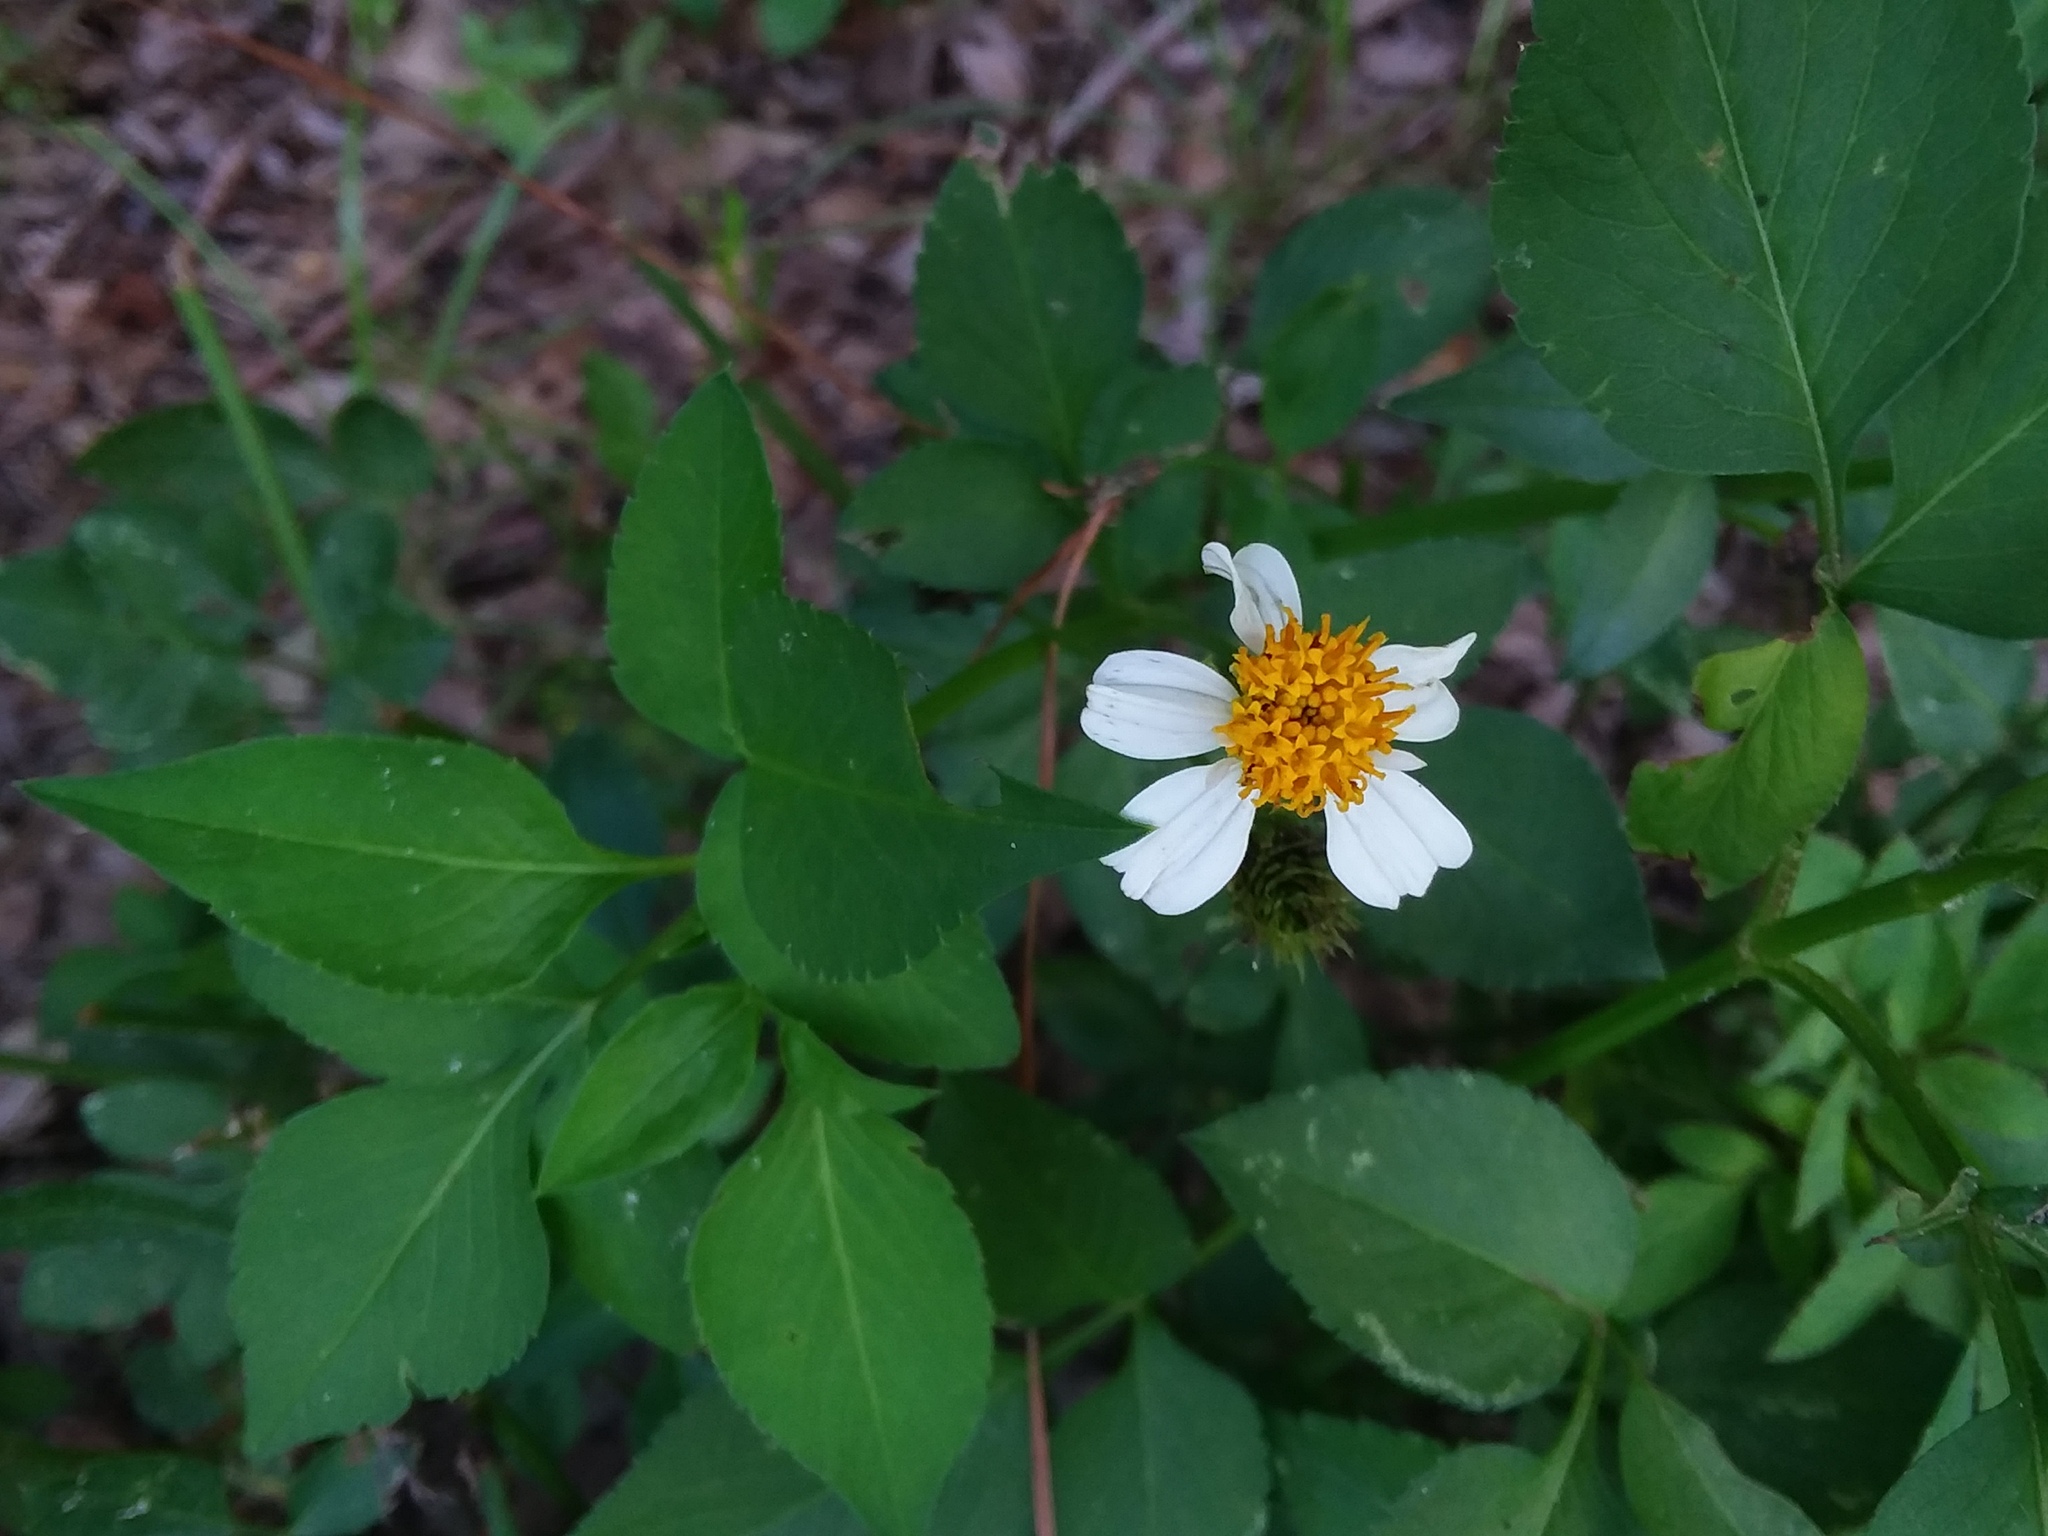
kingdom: Plantae
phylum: Tracheophyta
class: Magnoliopsida
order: Asterales
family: Asteraceae
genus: Bidens
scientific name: Bidens alba
